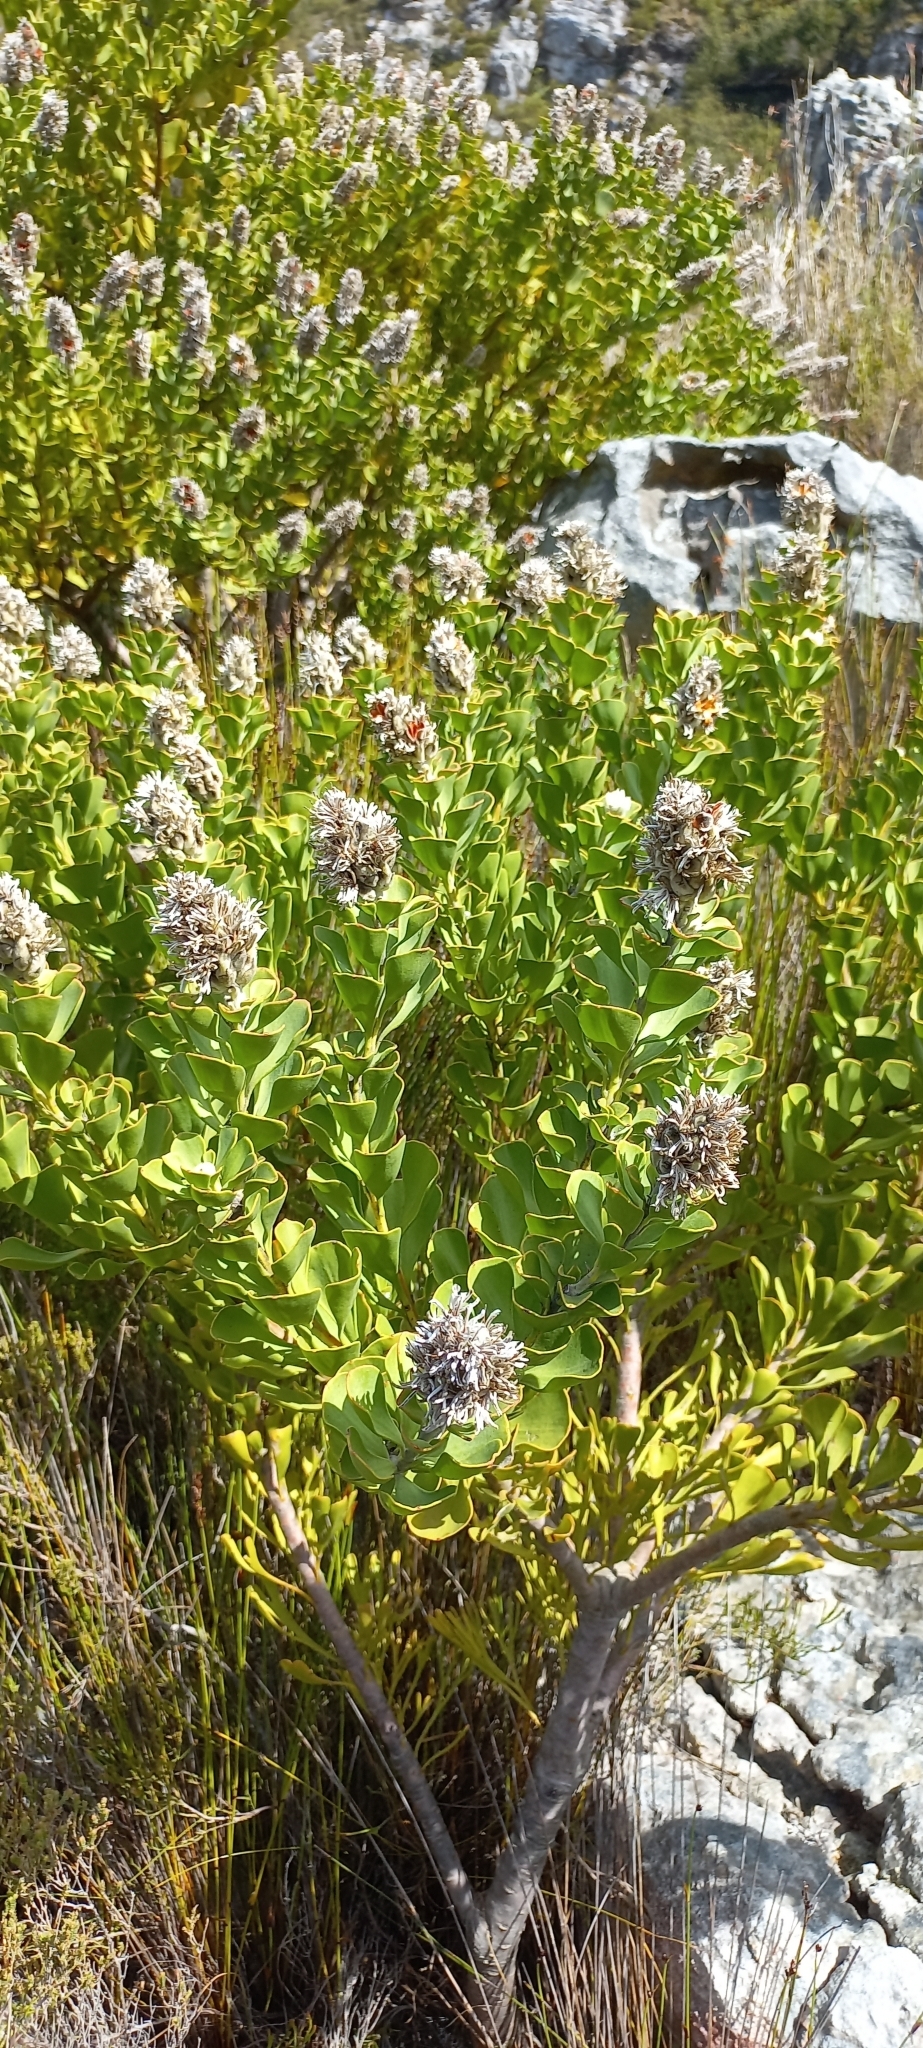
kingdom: Plantae
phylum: Tracheophyta
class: Magnoliopsida
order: Proteales
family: Proteaceae
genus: Paranomus
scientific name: Paranomus sceptrum-gustavianus
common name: King gustav's sceptre
